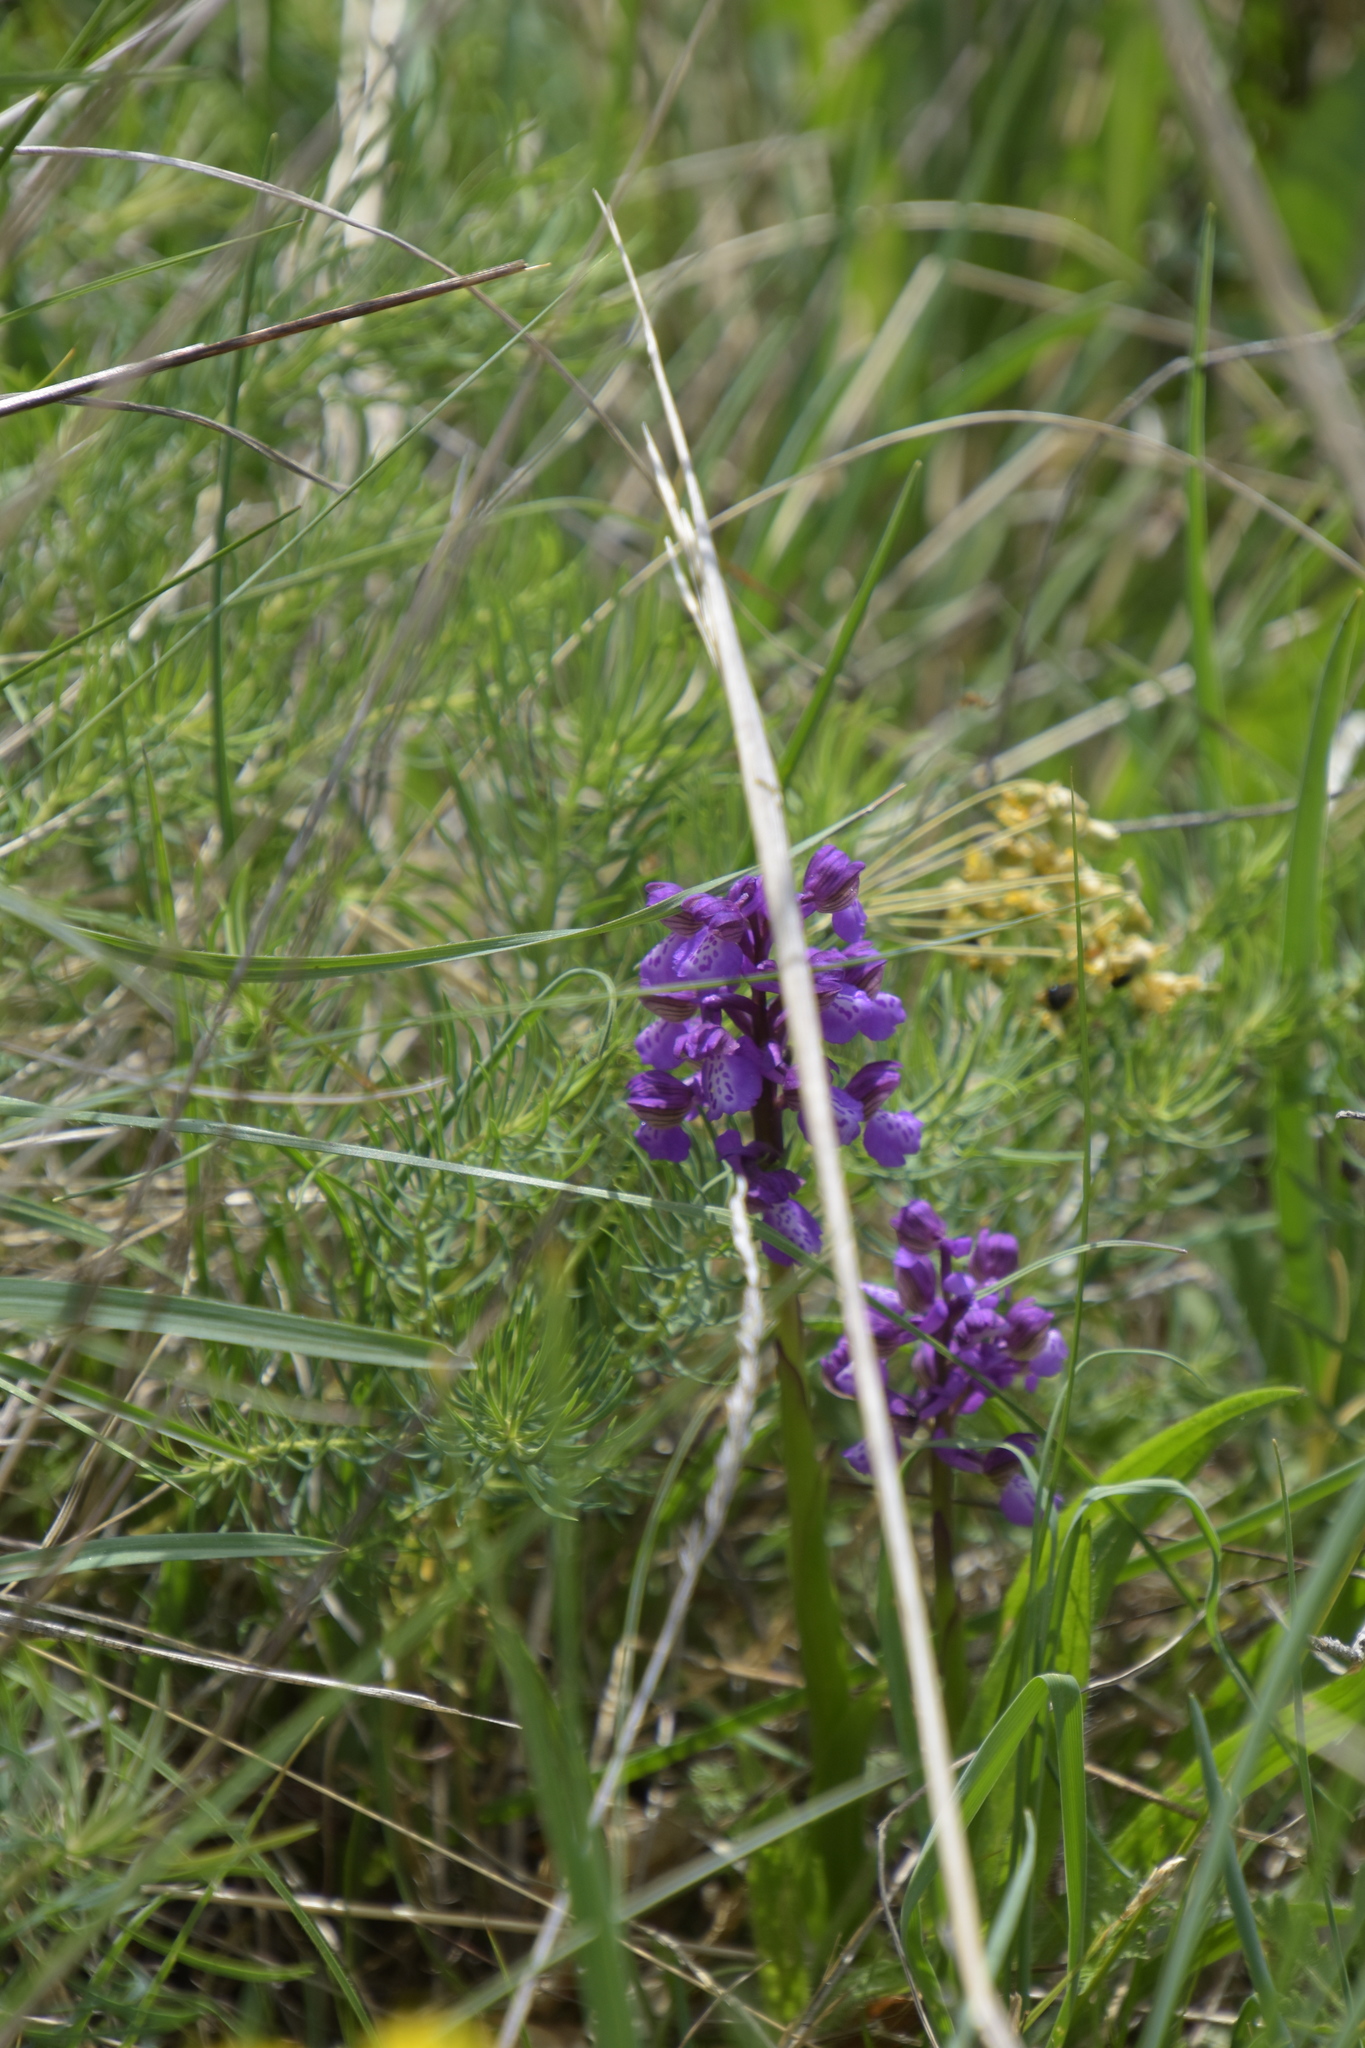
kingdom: Plantae
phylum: Tracheophyta
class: Liliopsida
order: Asparagales
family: Orchidaceae
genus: Anacamptis
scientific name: Anacamptis morio
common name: Green-winged orchid
